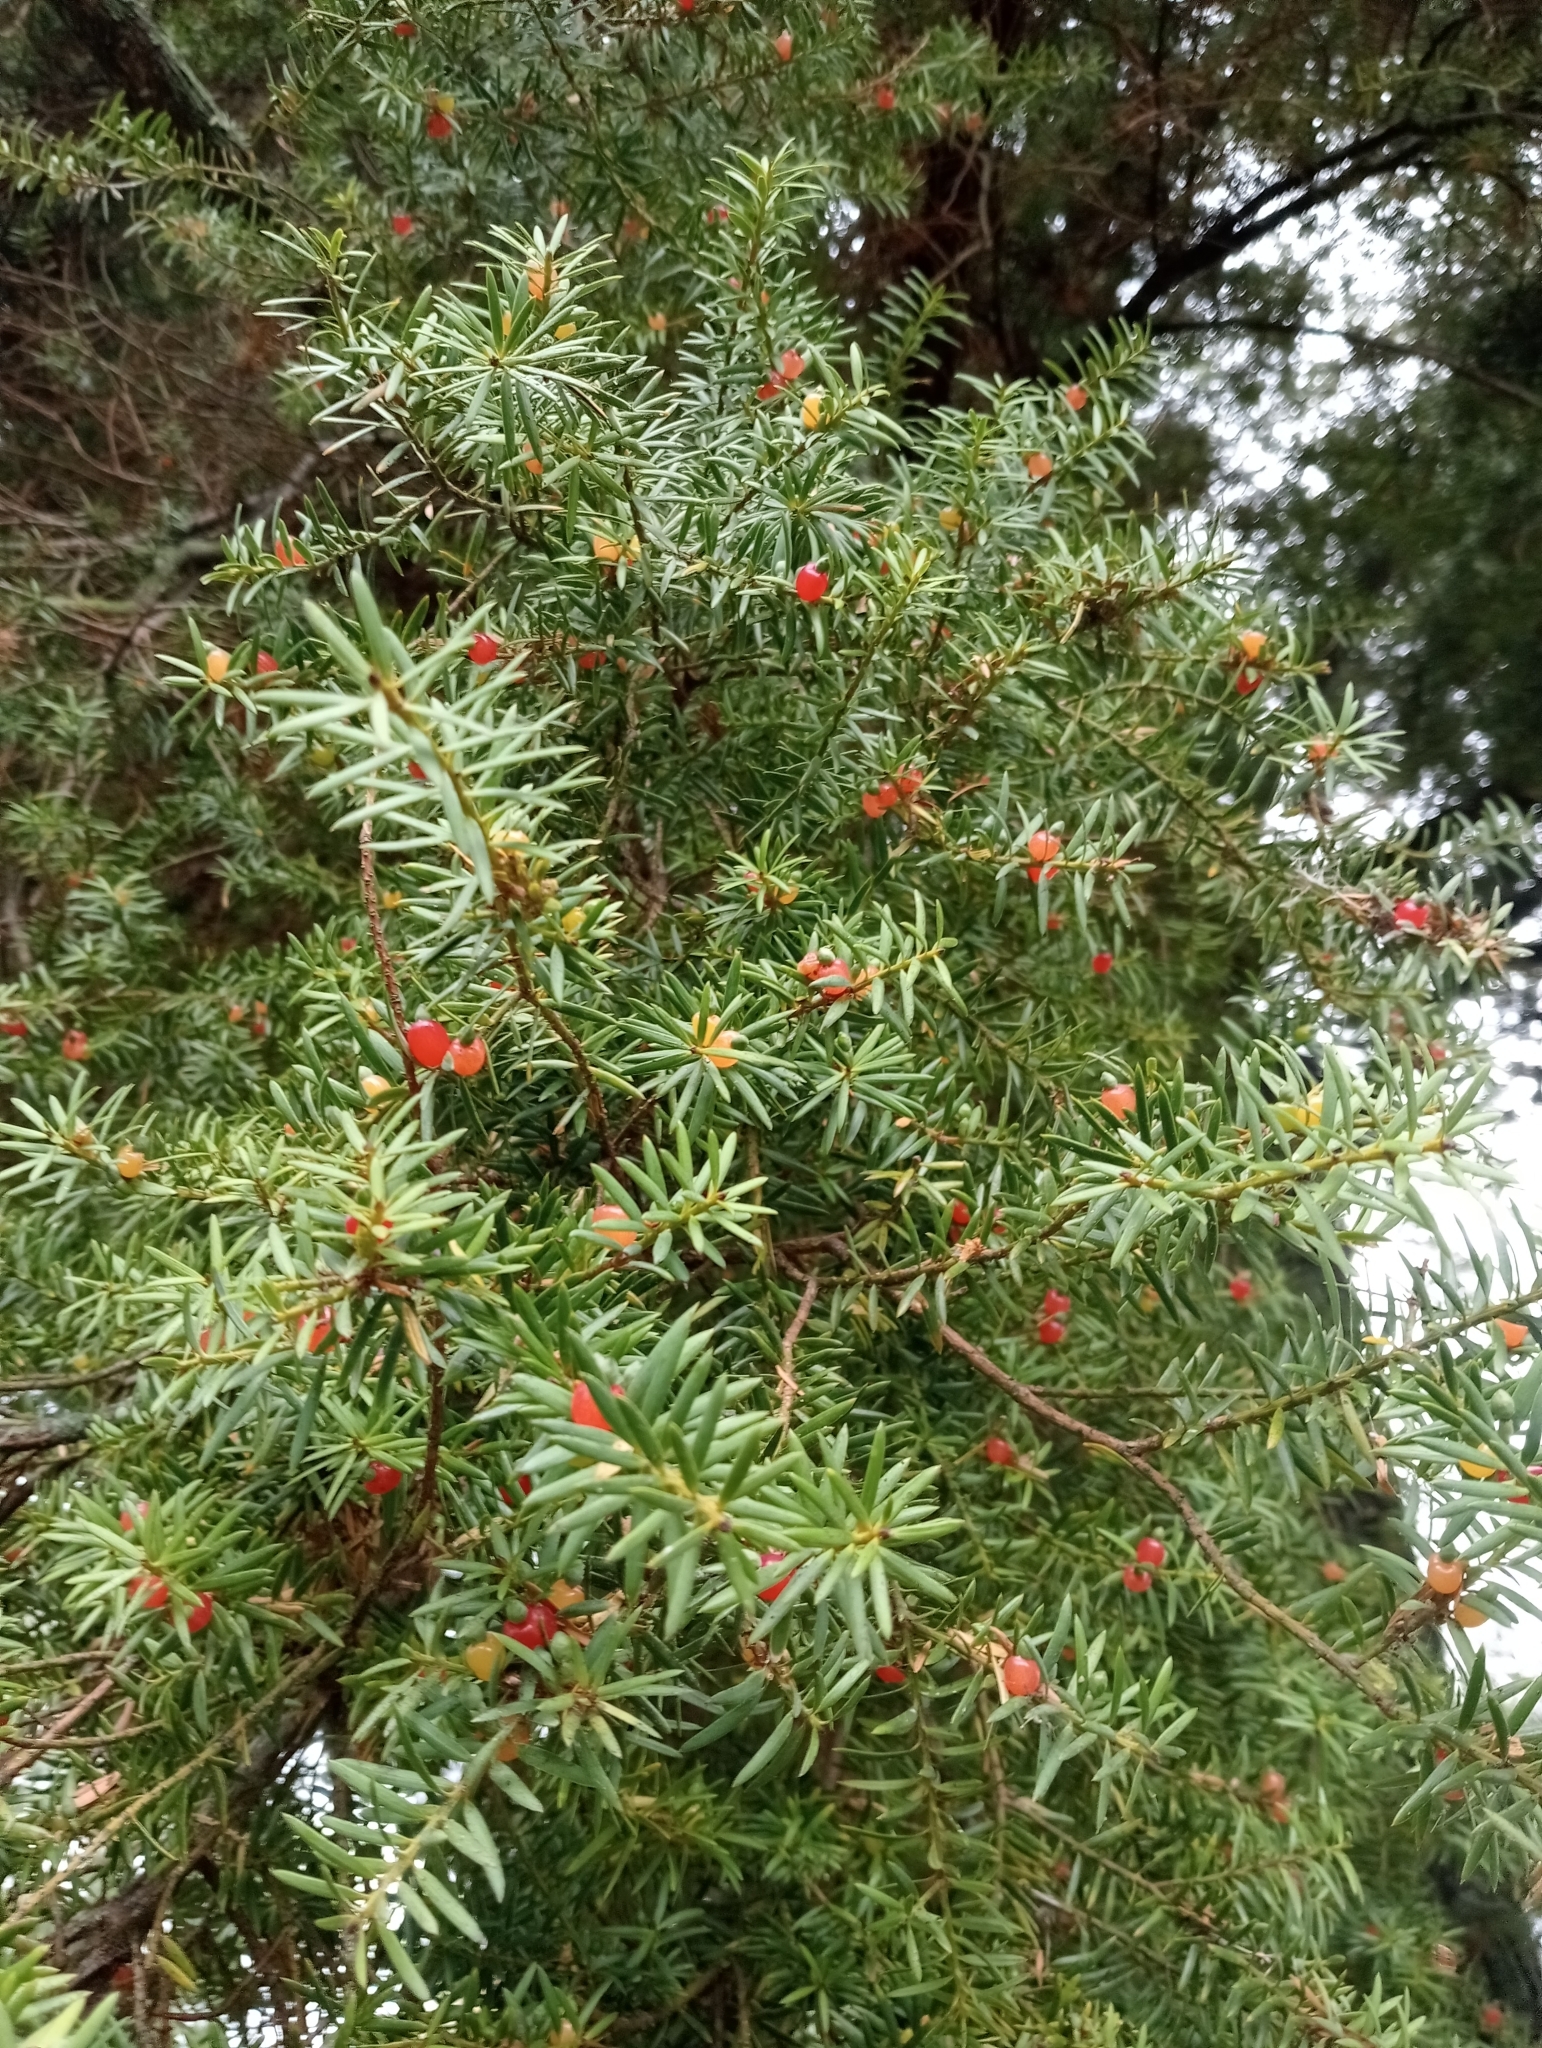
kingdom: Plantae
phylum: Tracheophyta
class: Pinopsida
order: Pinales
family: Podocarpaceae
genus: Podocarpus
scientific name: Podocarpus totara
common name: Totara
